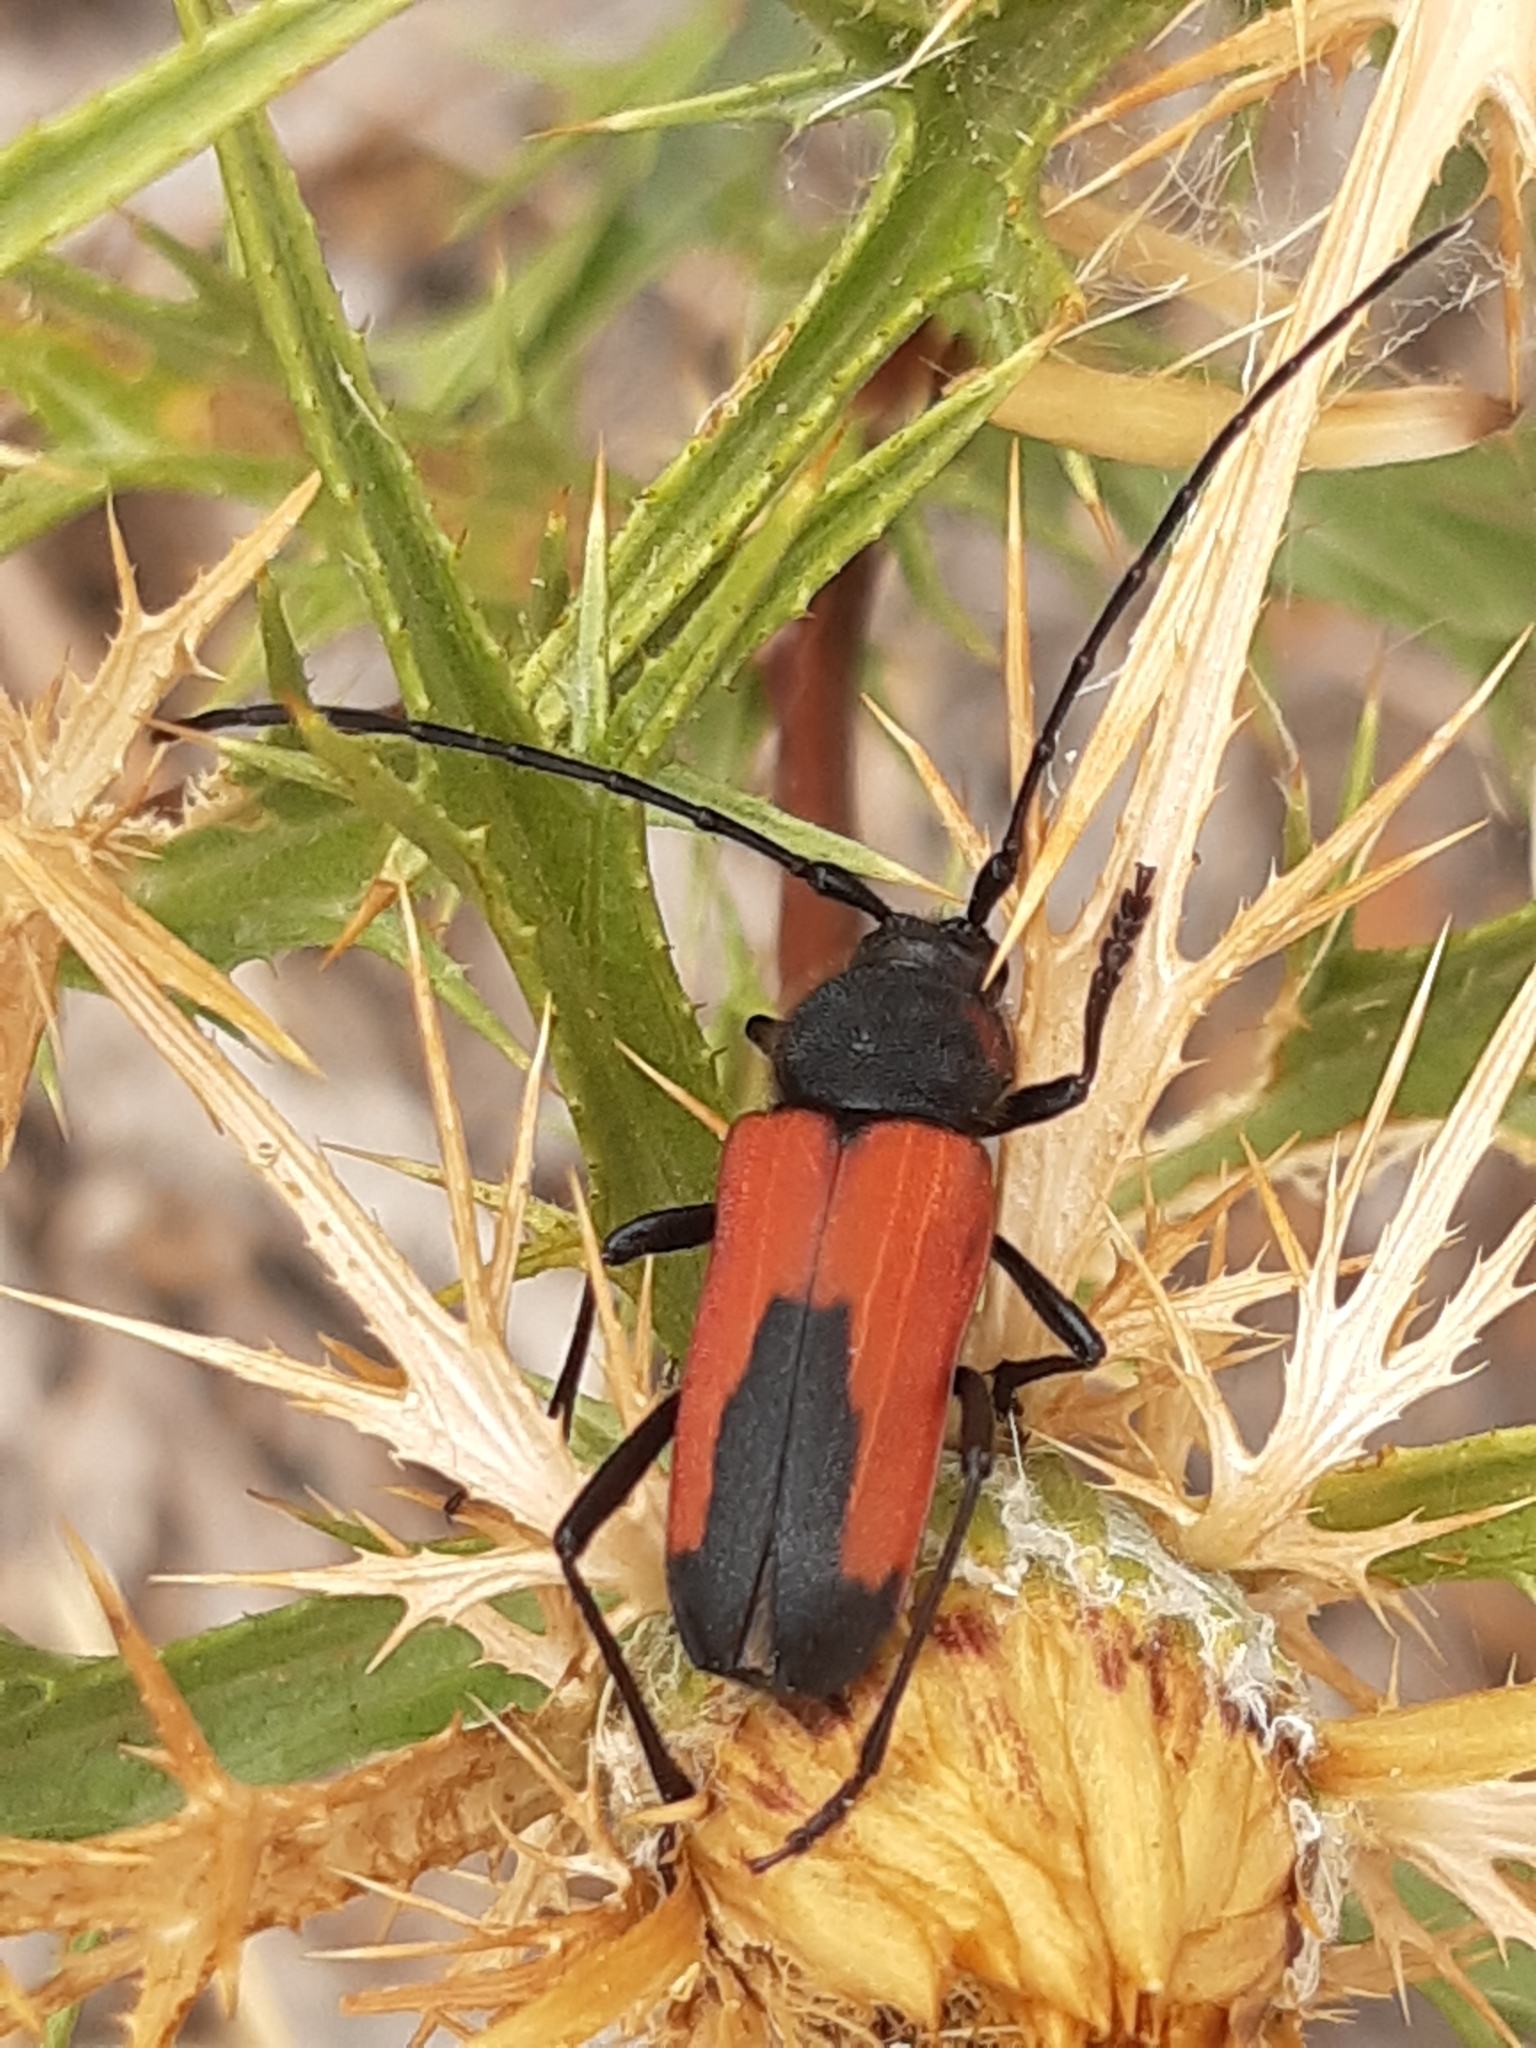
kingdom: Animalia
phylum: Arthropoda
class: Insecta
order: Coleoptera
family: Cerambycidae
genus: Purpuricenus
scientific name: Purpuricenus budensis
